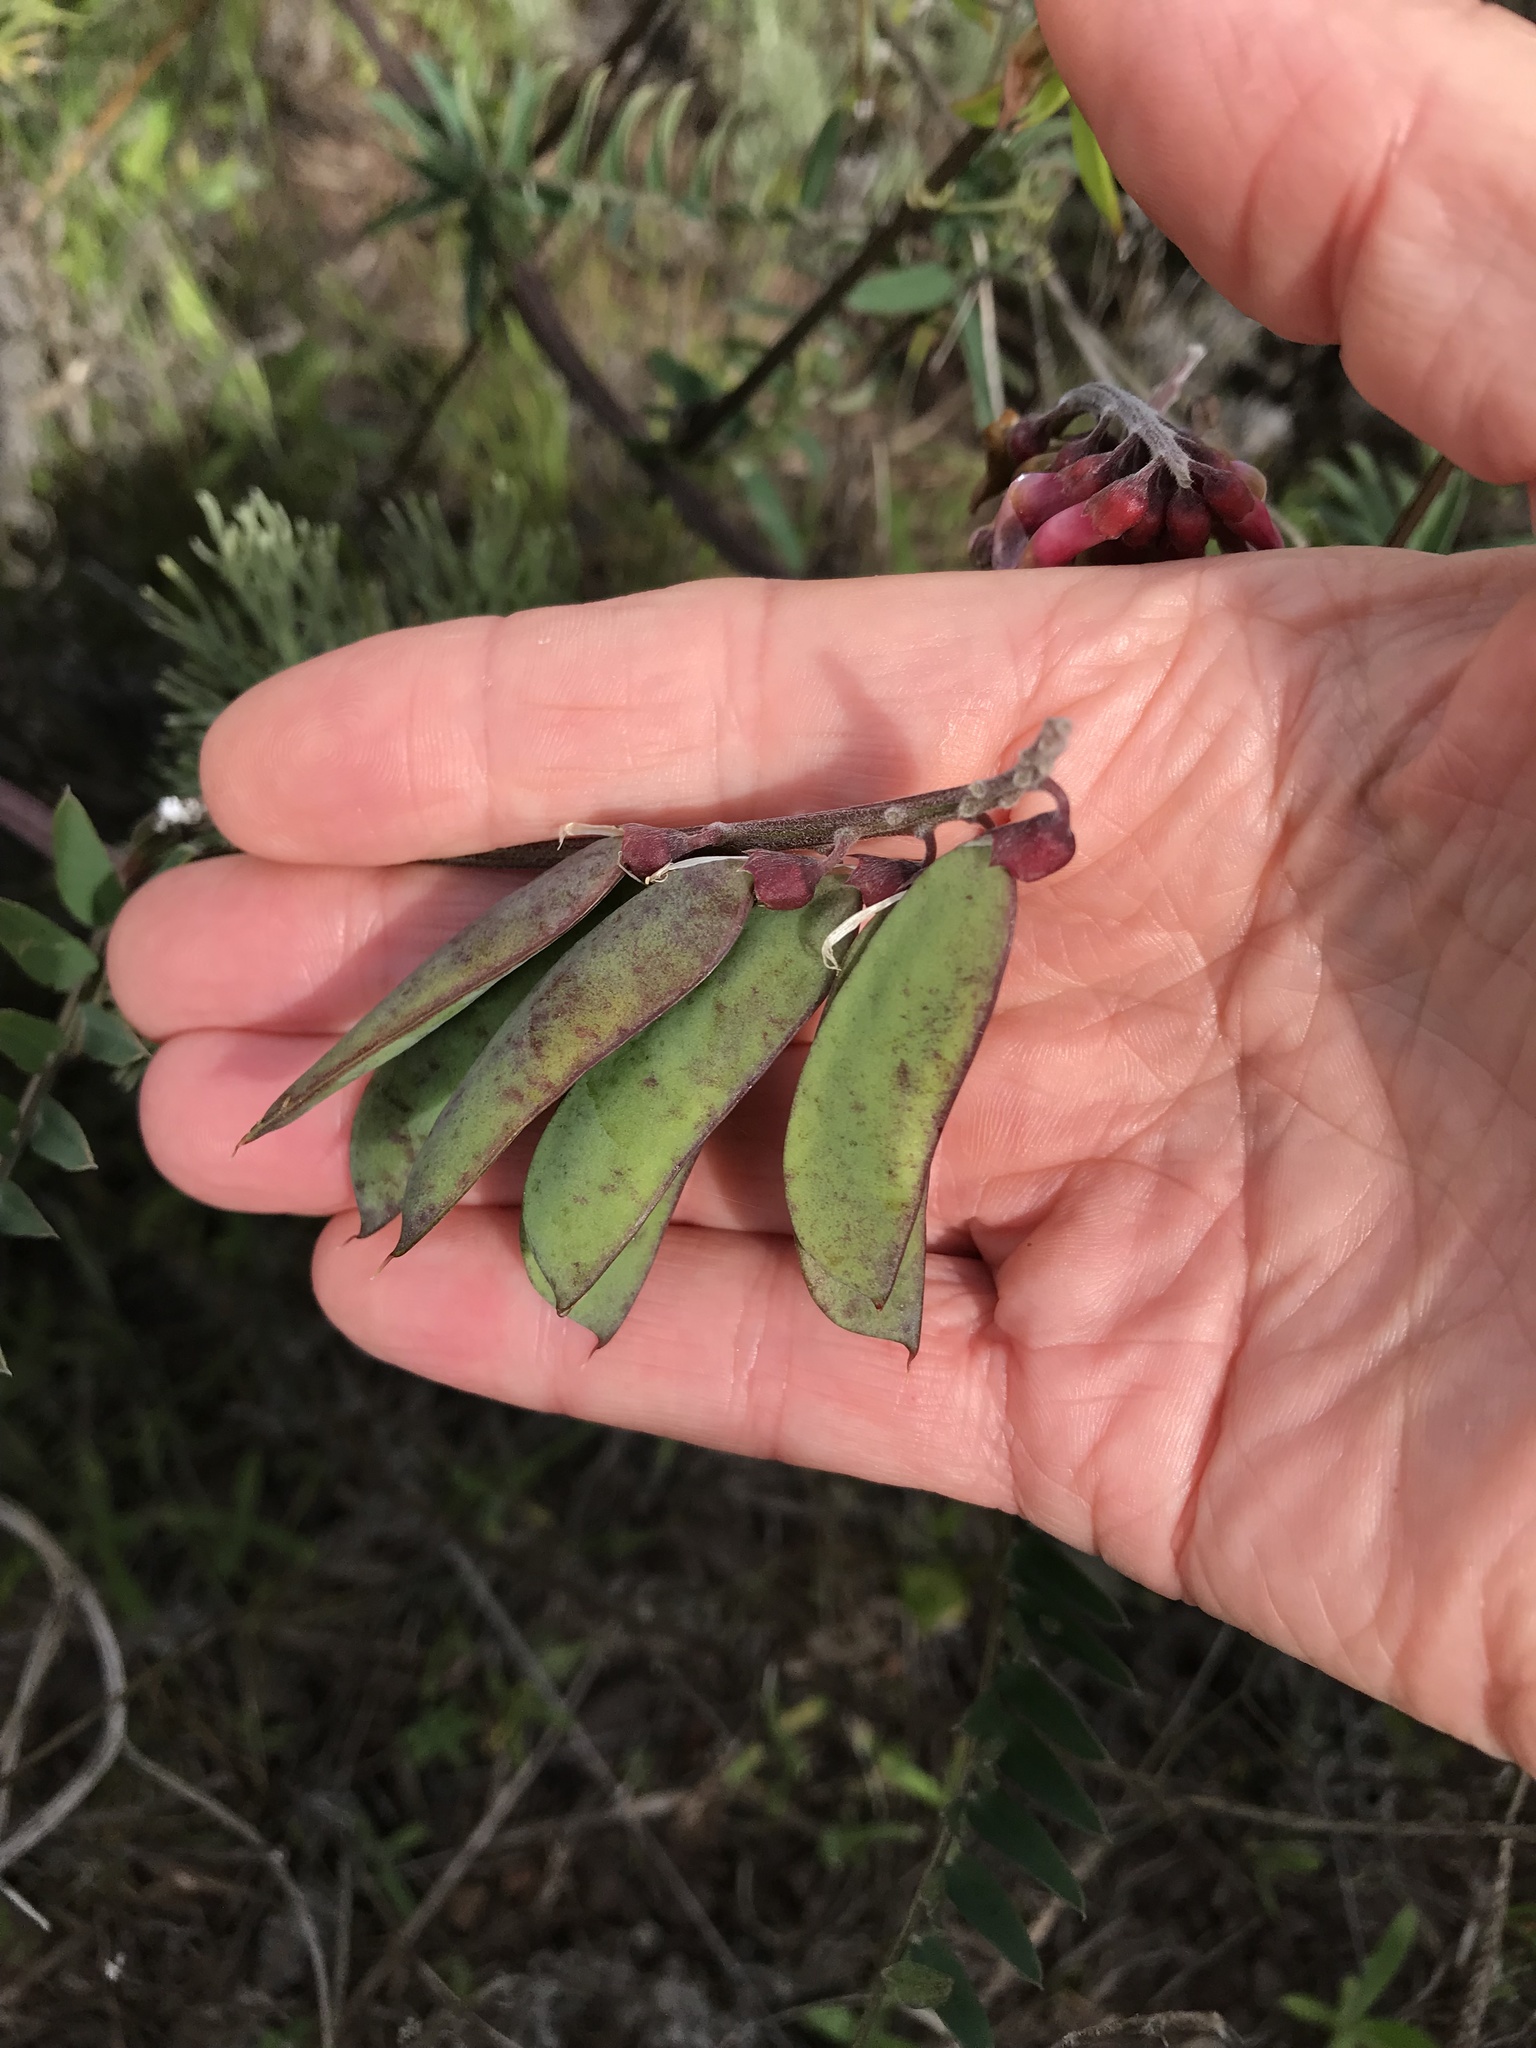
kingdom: Plantae
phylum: Tracheophyta
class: Magnoliopsida
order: Fabales
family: Fabaceae
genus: Vicia
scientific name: Vicia
